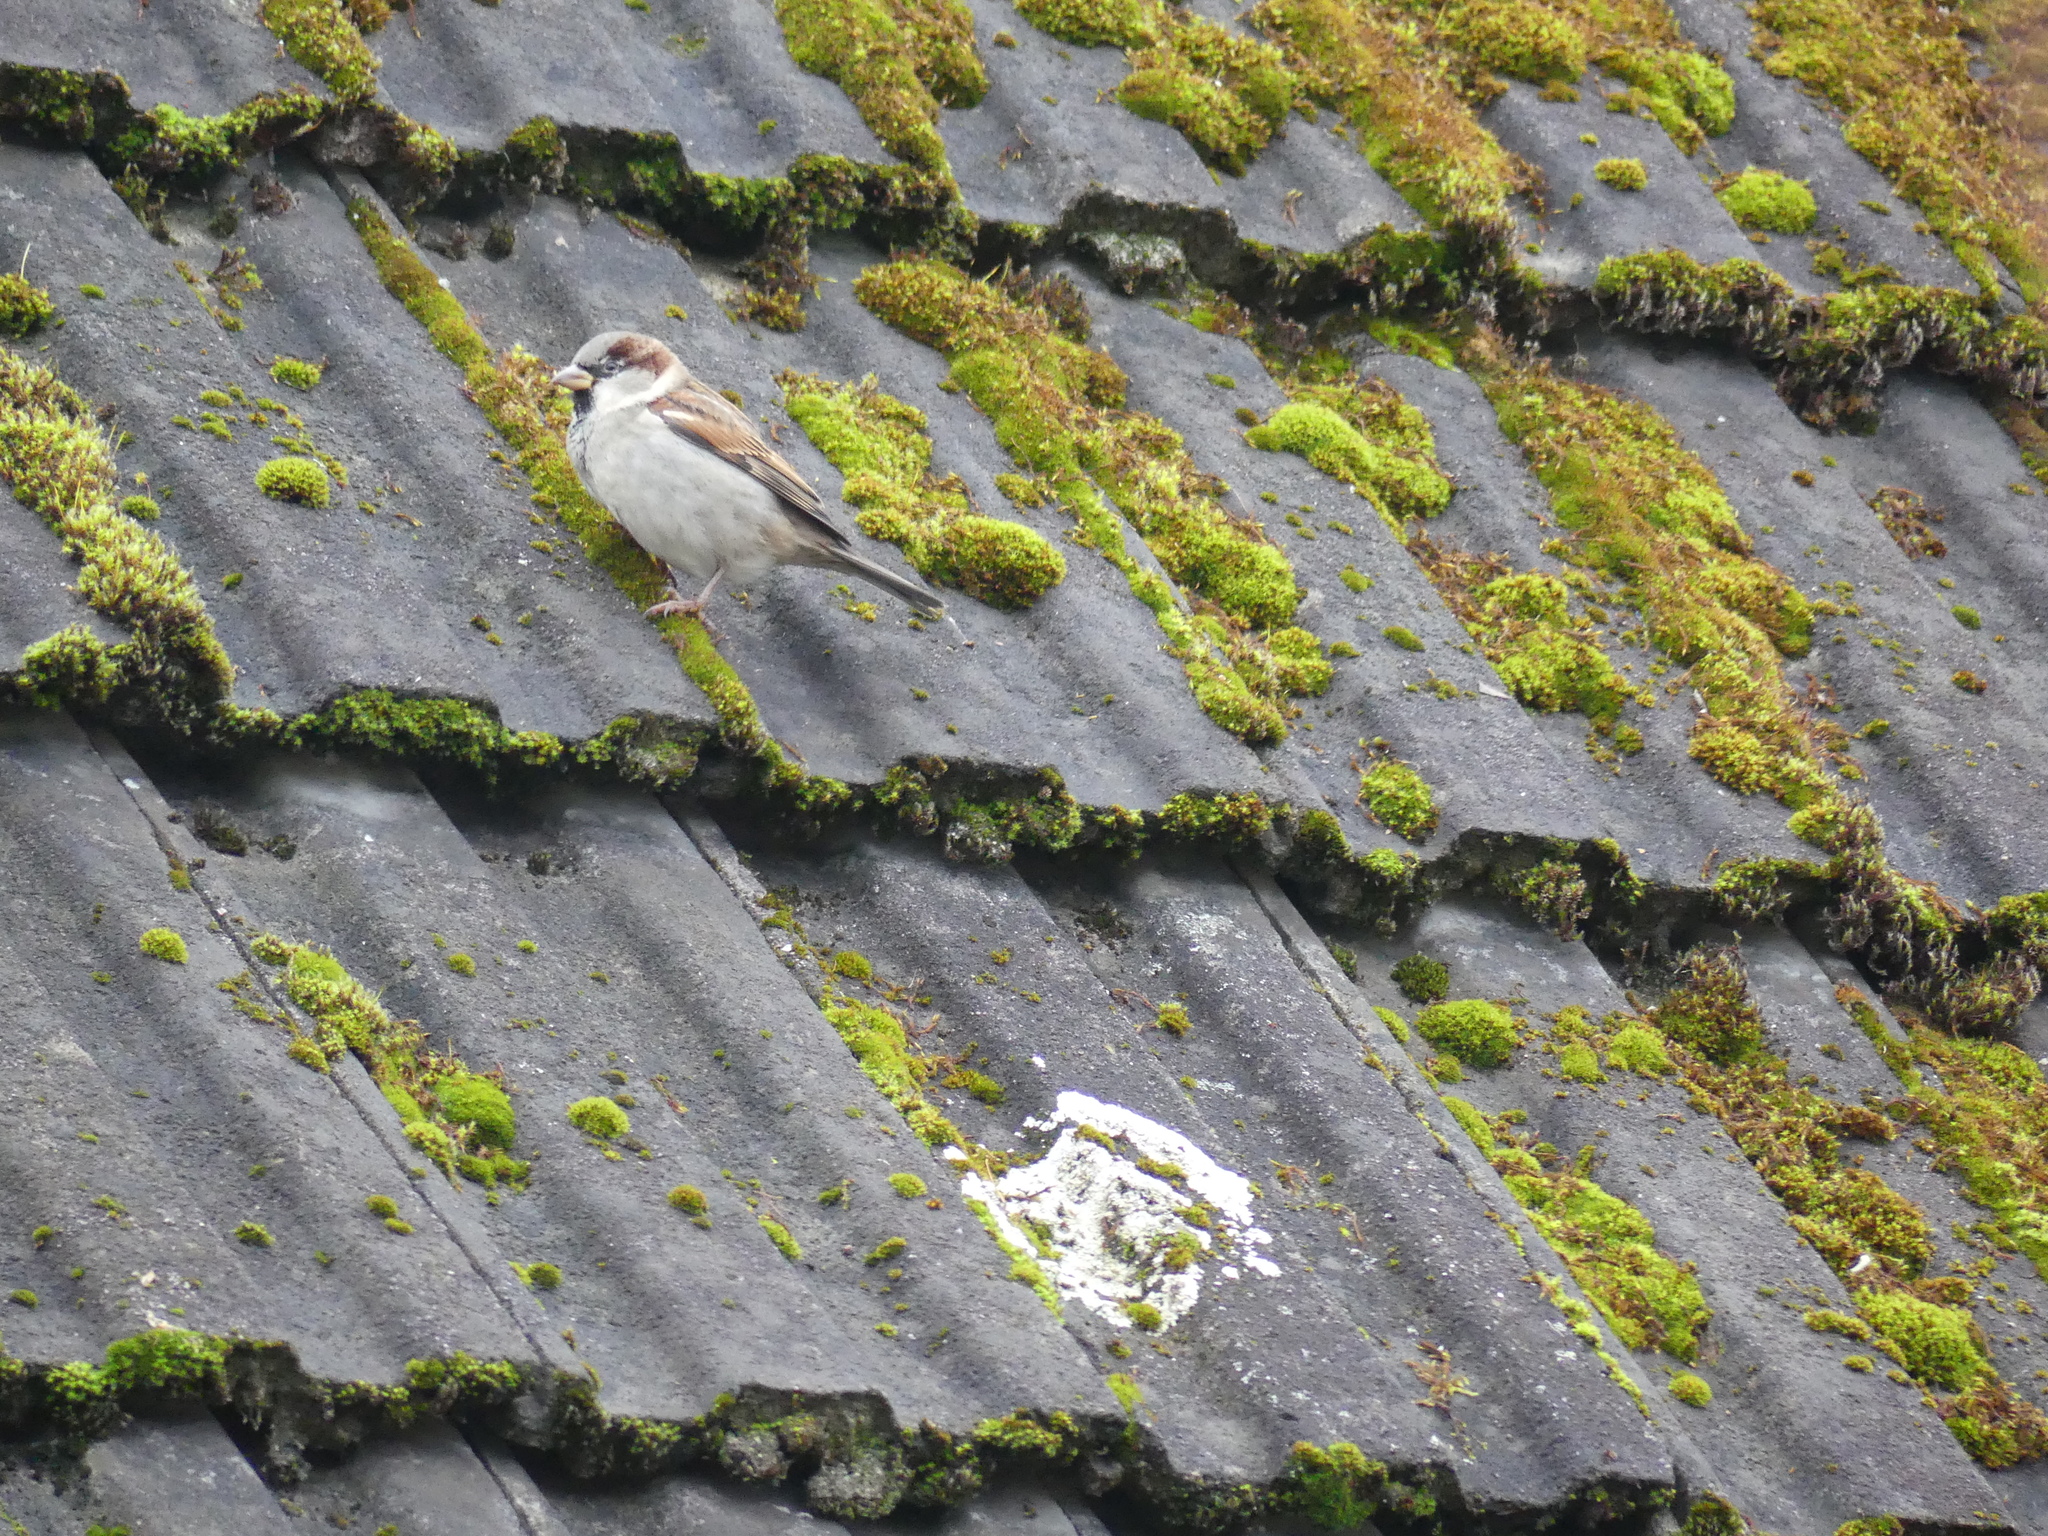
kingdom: Animalia
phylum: Chordata
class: Aves
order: Passeriformes
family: Passeridae
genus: Passer
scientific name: Passer domesticus
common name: House sparrow
